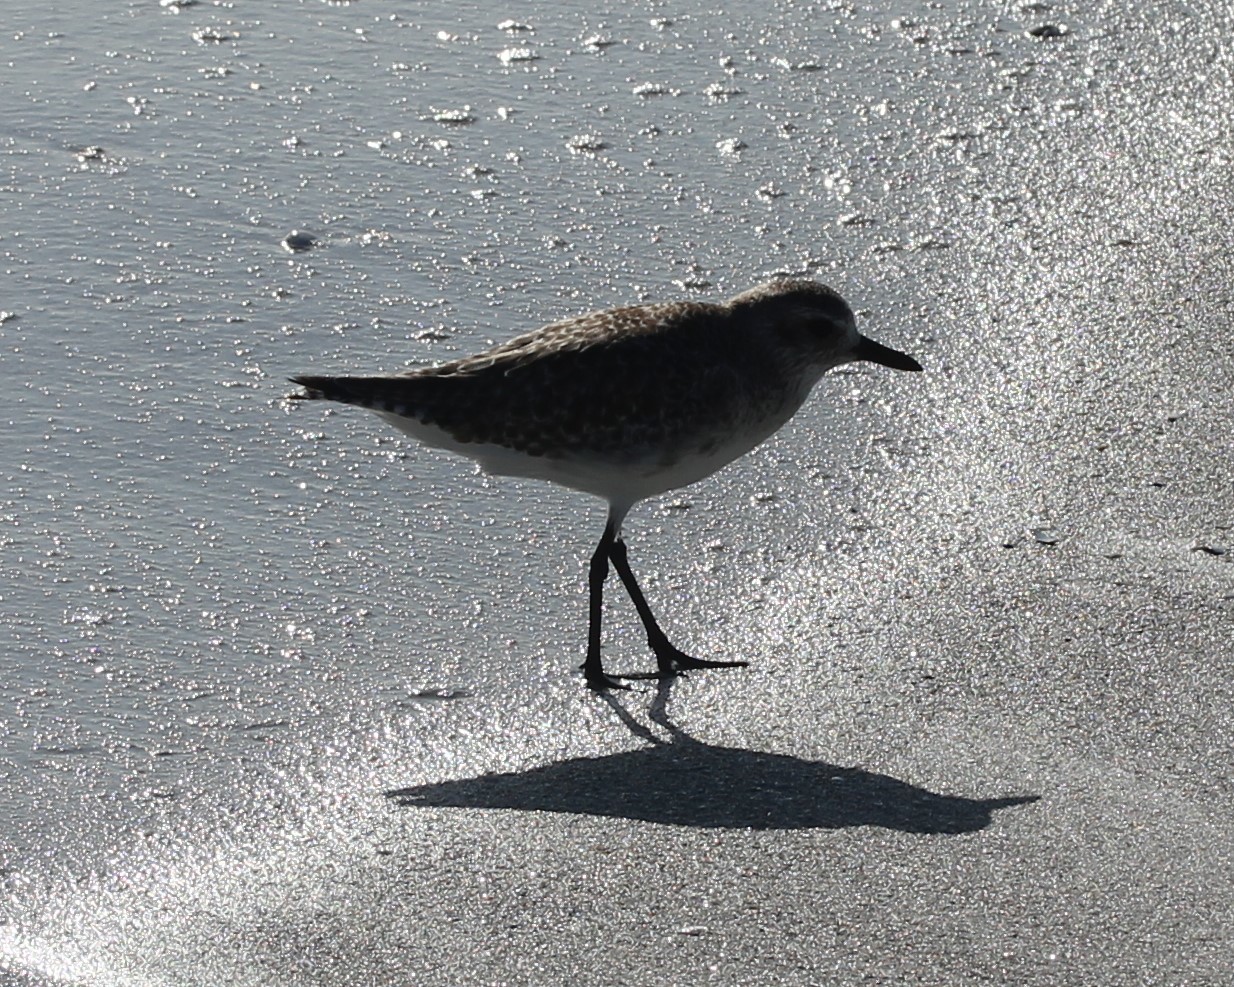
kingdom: Animalia
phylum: Chordata
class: Aves
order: Charadriiformes
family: Charadriidae
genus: Pluvialis
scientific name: Pluvialis squatarola
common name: Grey plover
